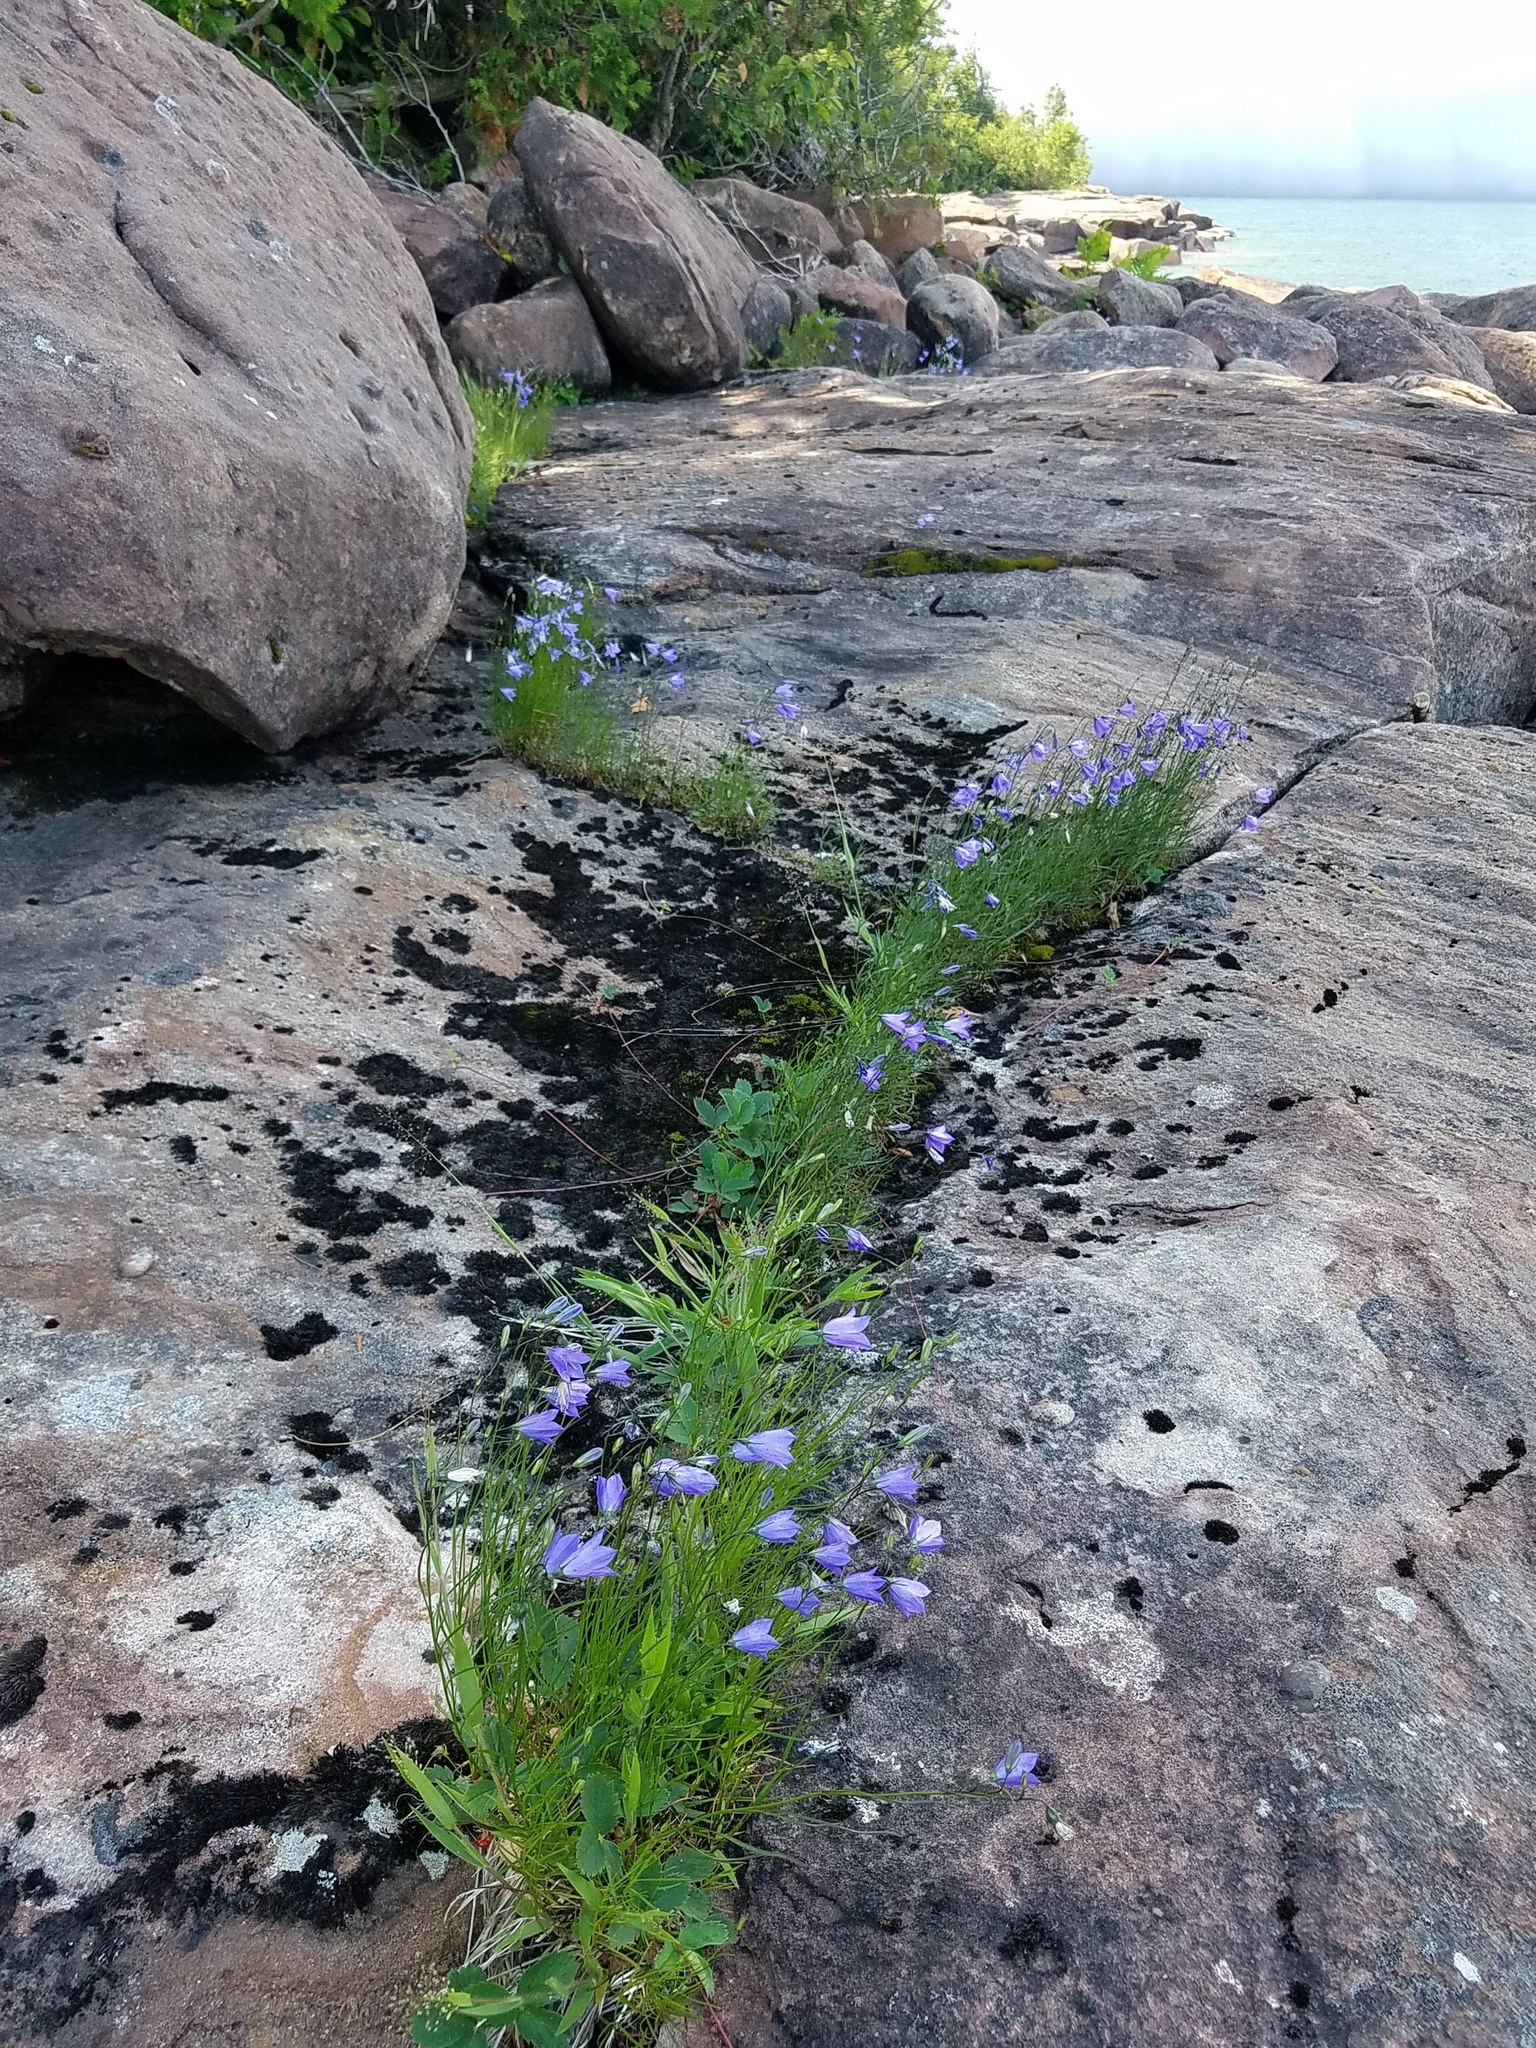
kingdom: Plantae
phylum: Tracheophyta
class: Magnoliopsida
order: Rosales
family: Rosaceae
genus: Physocarpus
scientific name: Physocarpus opulifolius
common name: Ninebark
